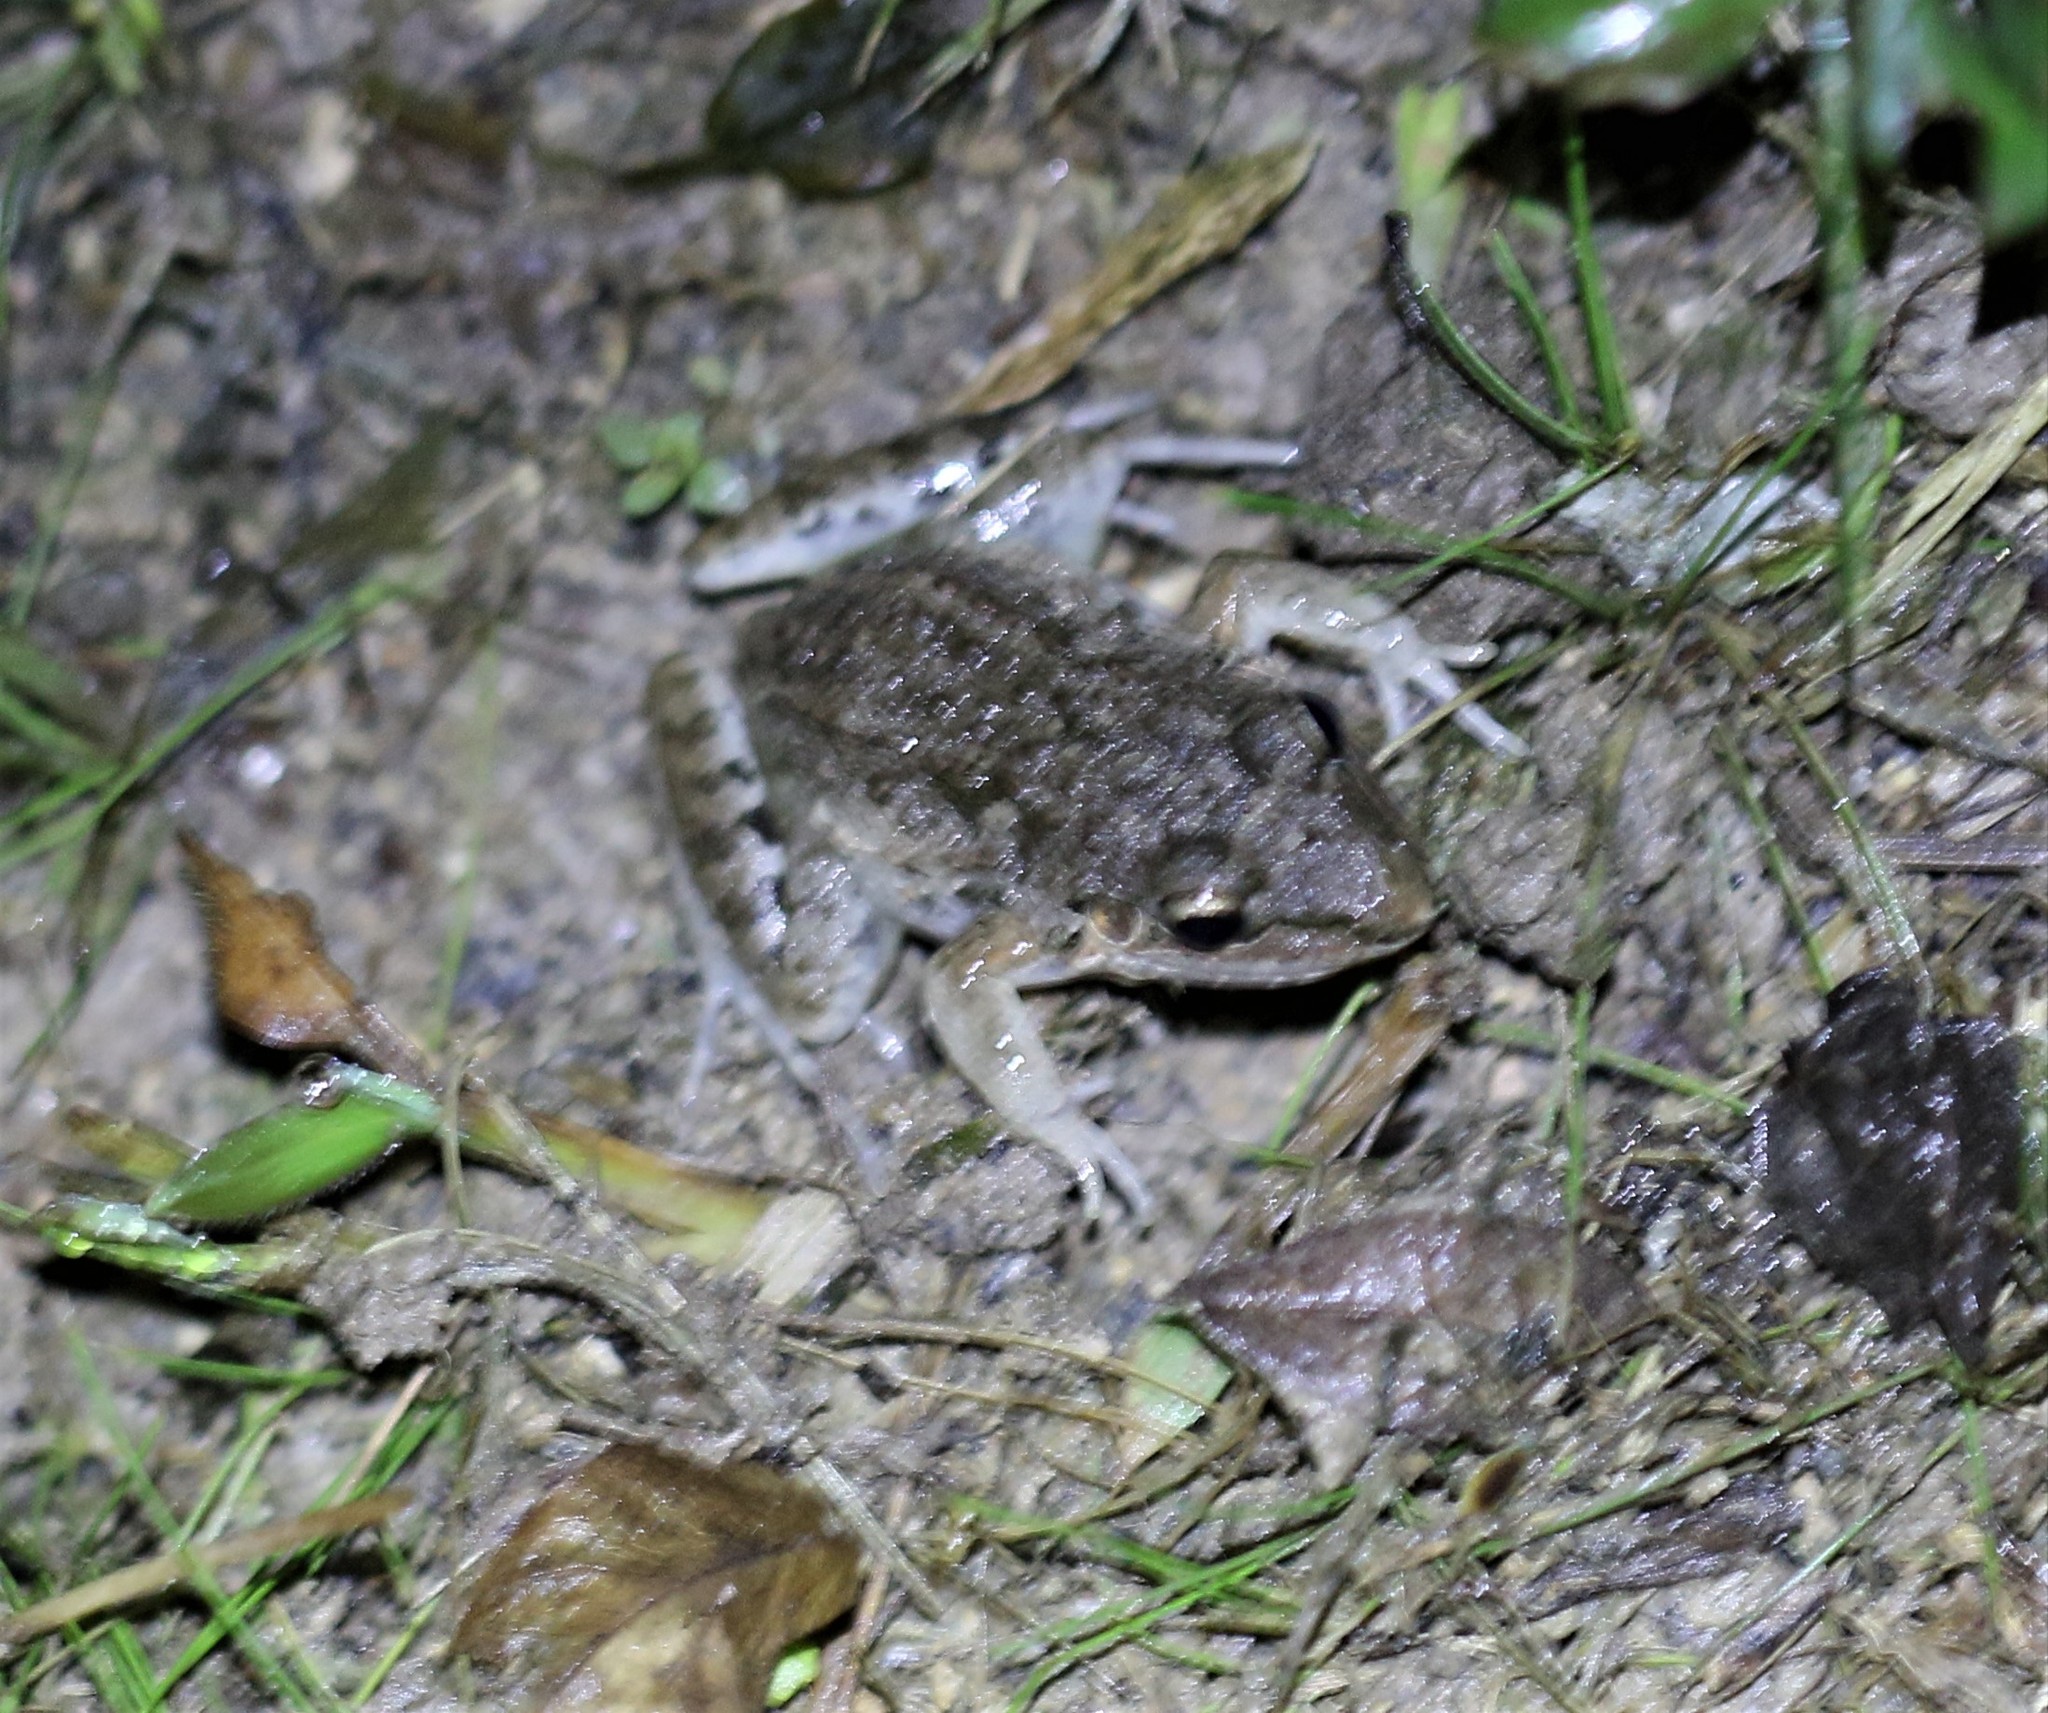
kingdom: Animalia
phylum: Chordata
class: Amphibia
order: Anura
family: Leptodactylidae
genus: Leptodactylus
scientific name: Leptodactylus insularum
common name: San miguel island frog
